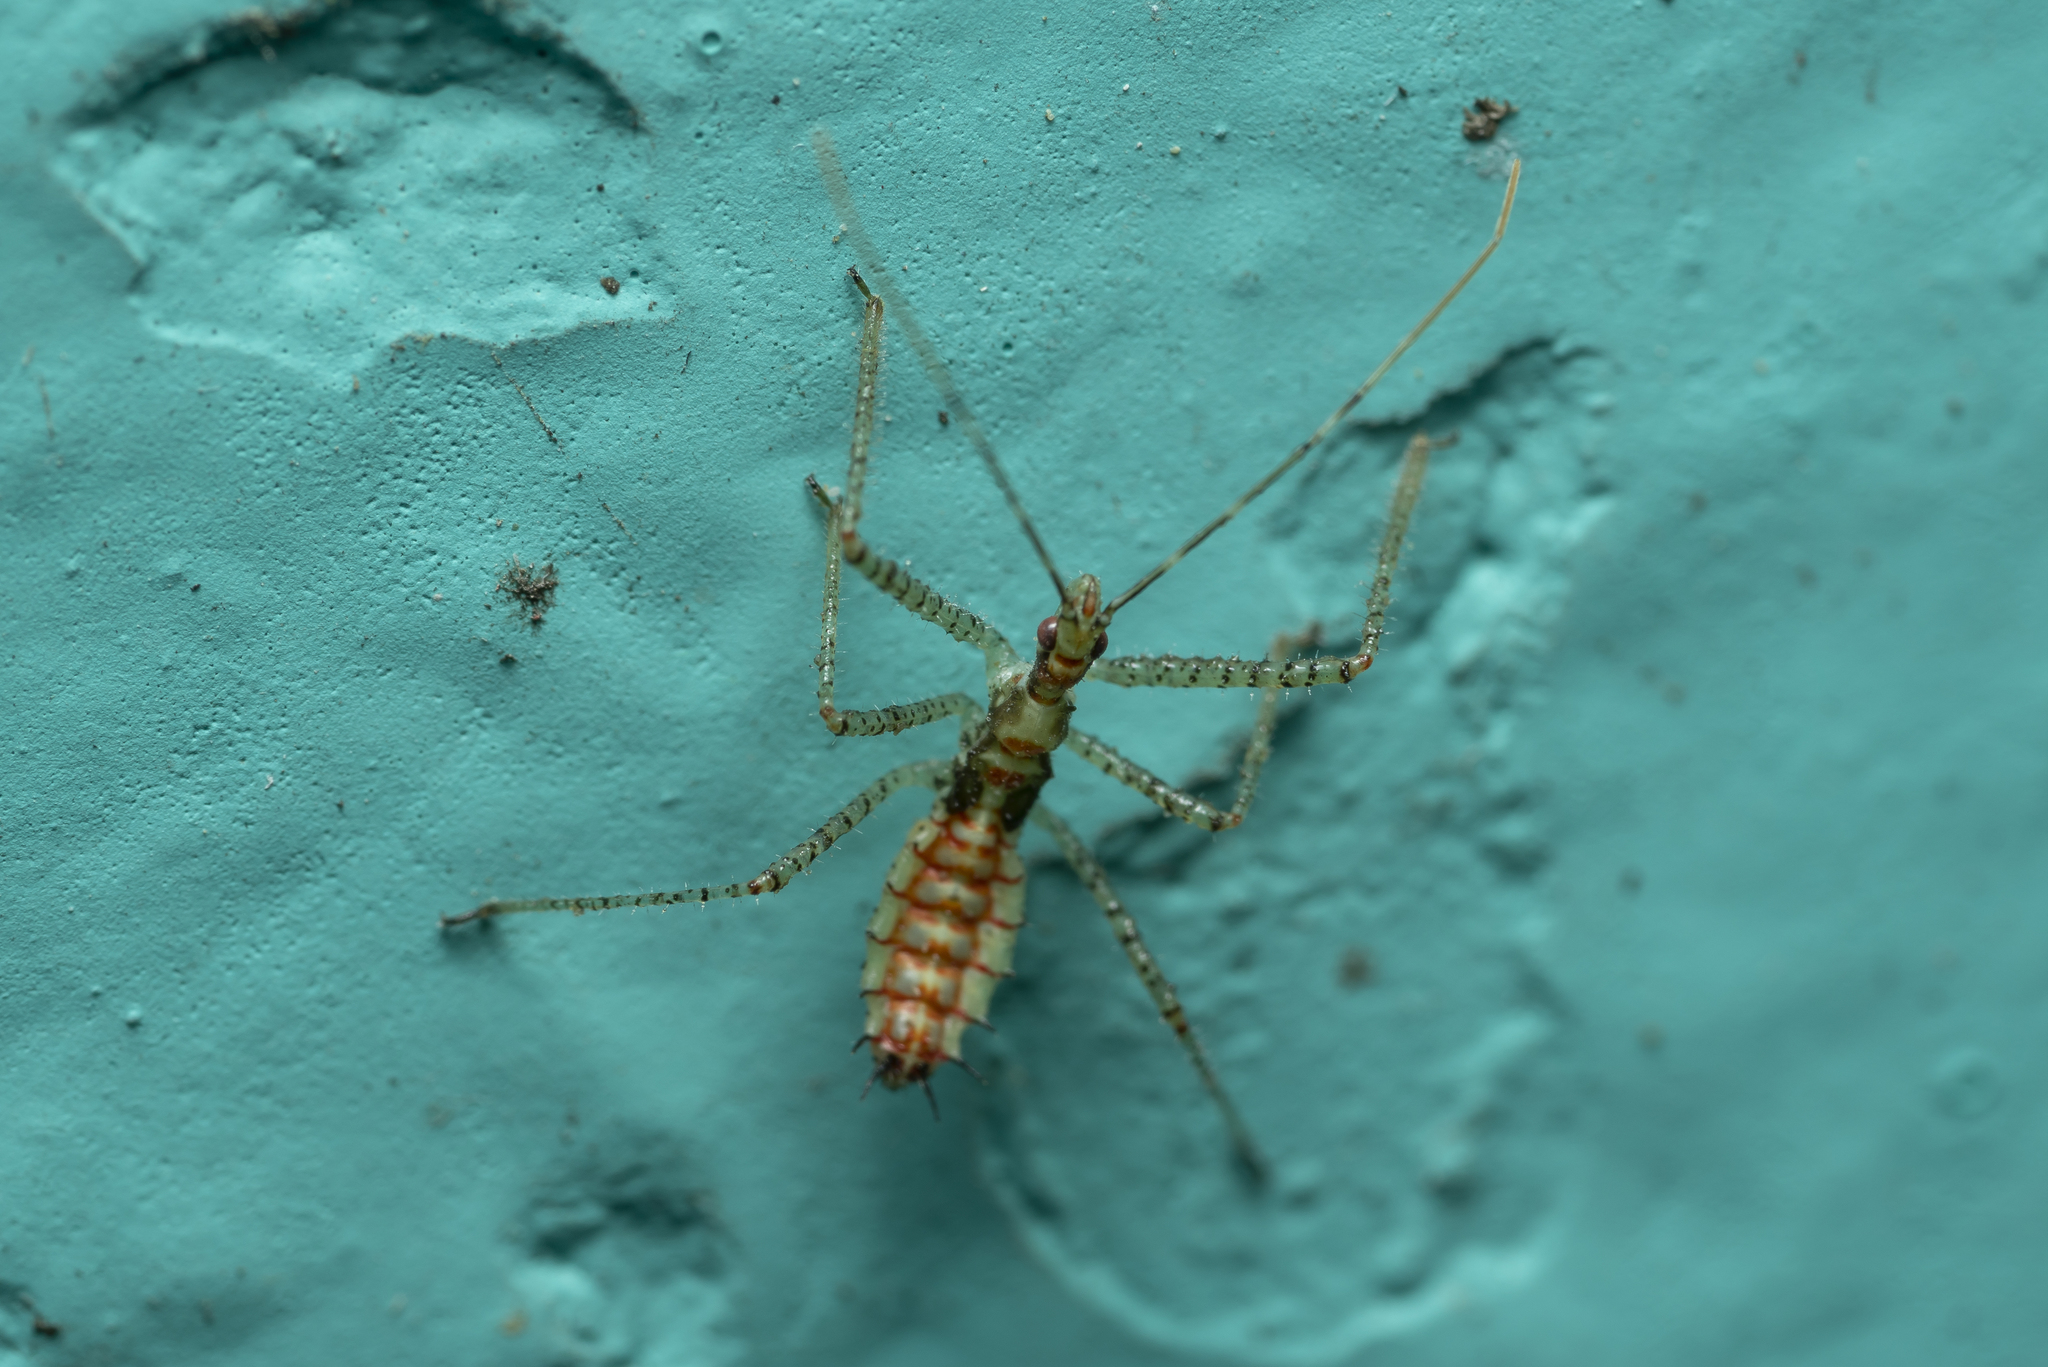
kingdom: Animalia
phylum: Arthropoda
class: Insecta
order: Hemiptera
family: Reduviidae
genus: Zelus
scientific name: Zelus renardii
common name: Assassin bug
